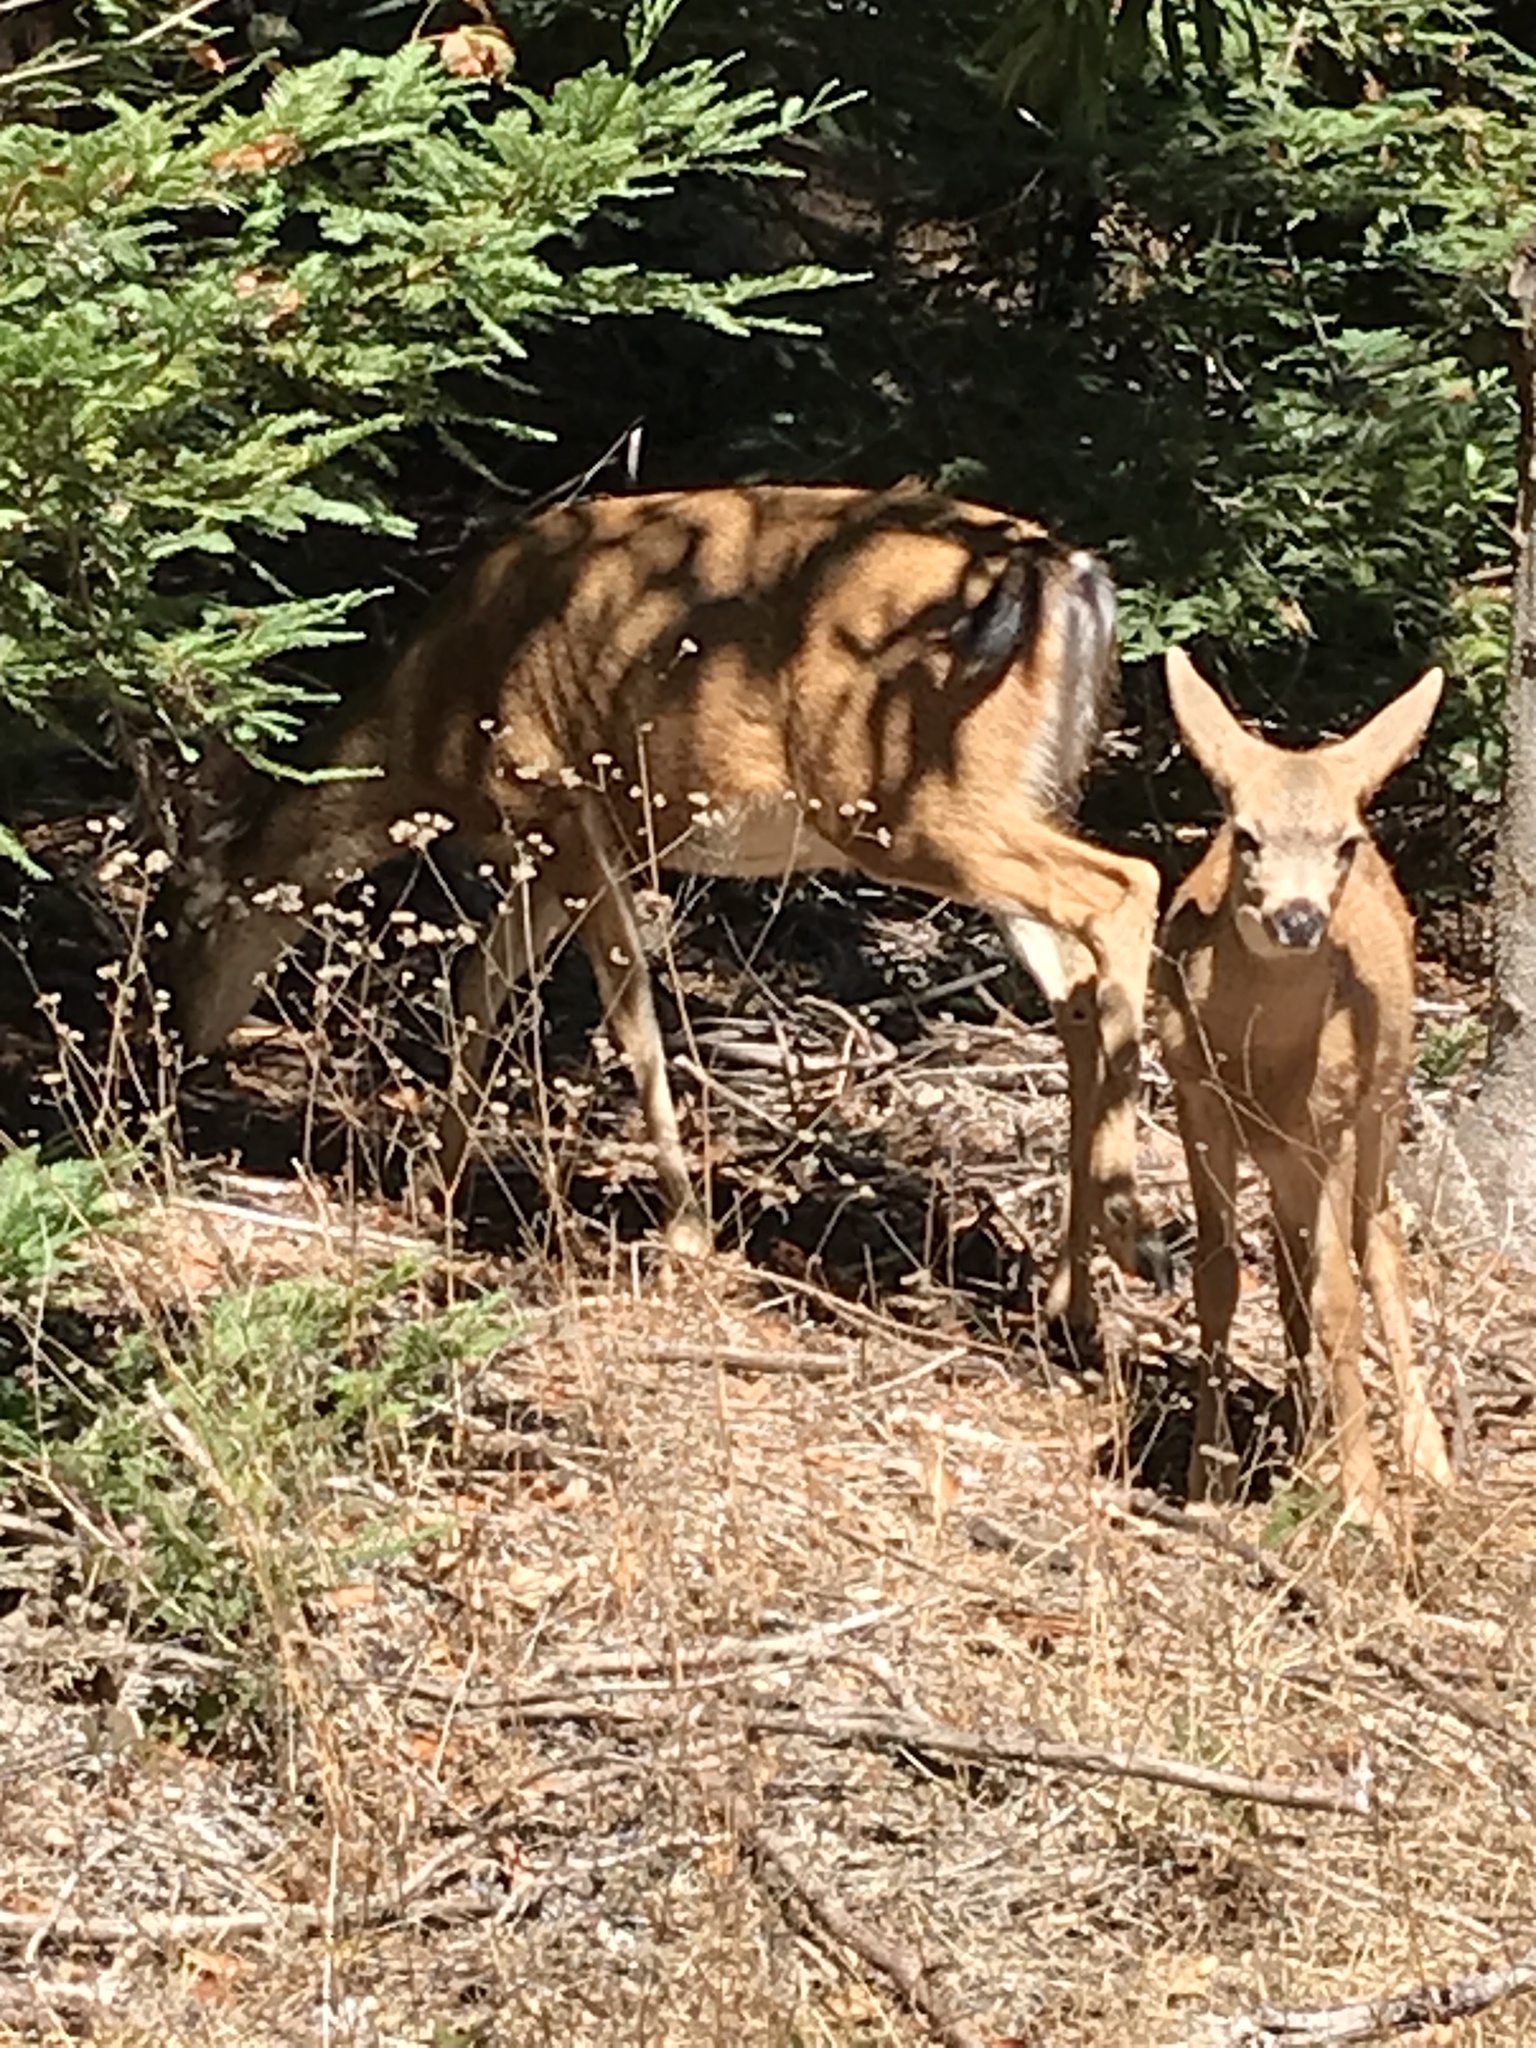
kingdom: Animalia
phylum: Chordata
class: Mammalia
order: Artiodactyla
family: Cervidae
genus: Odocoileus
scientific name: Odocoileus hemionus
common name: Mule deer
